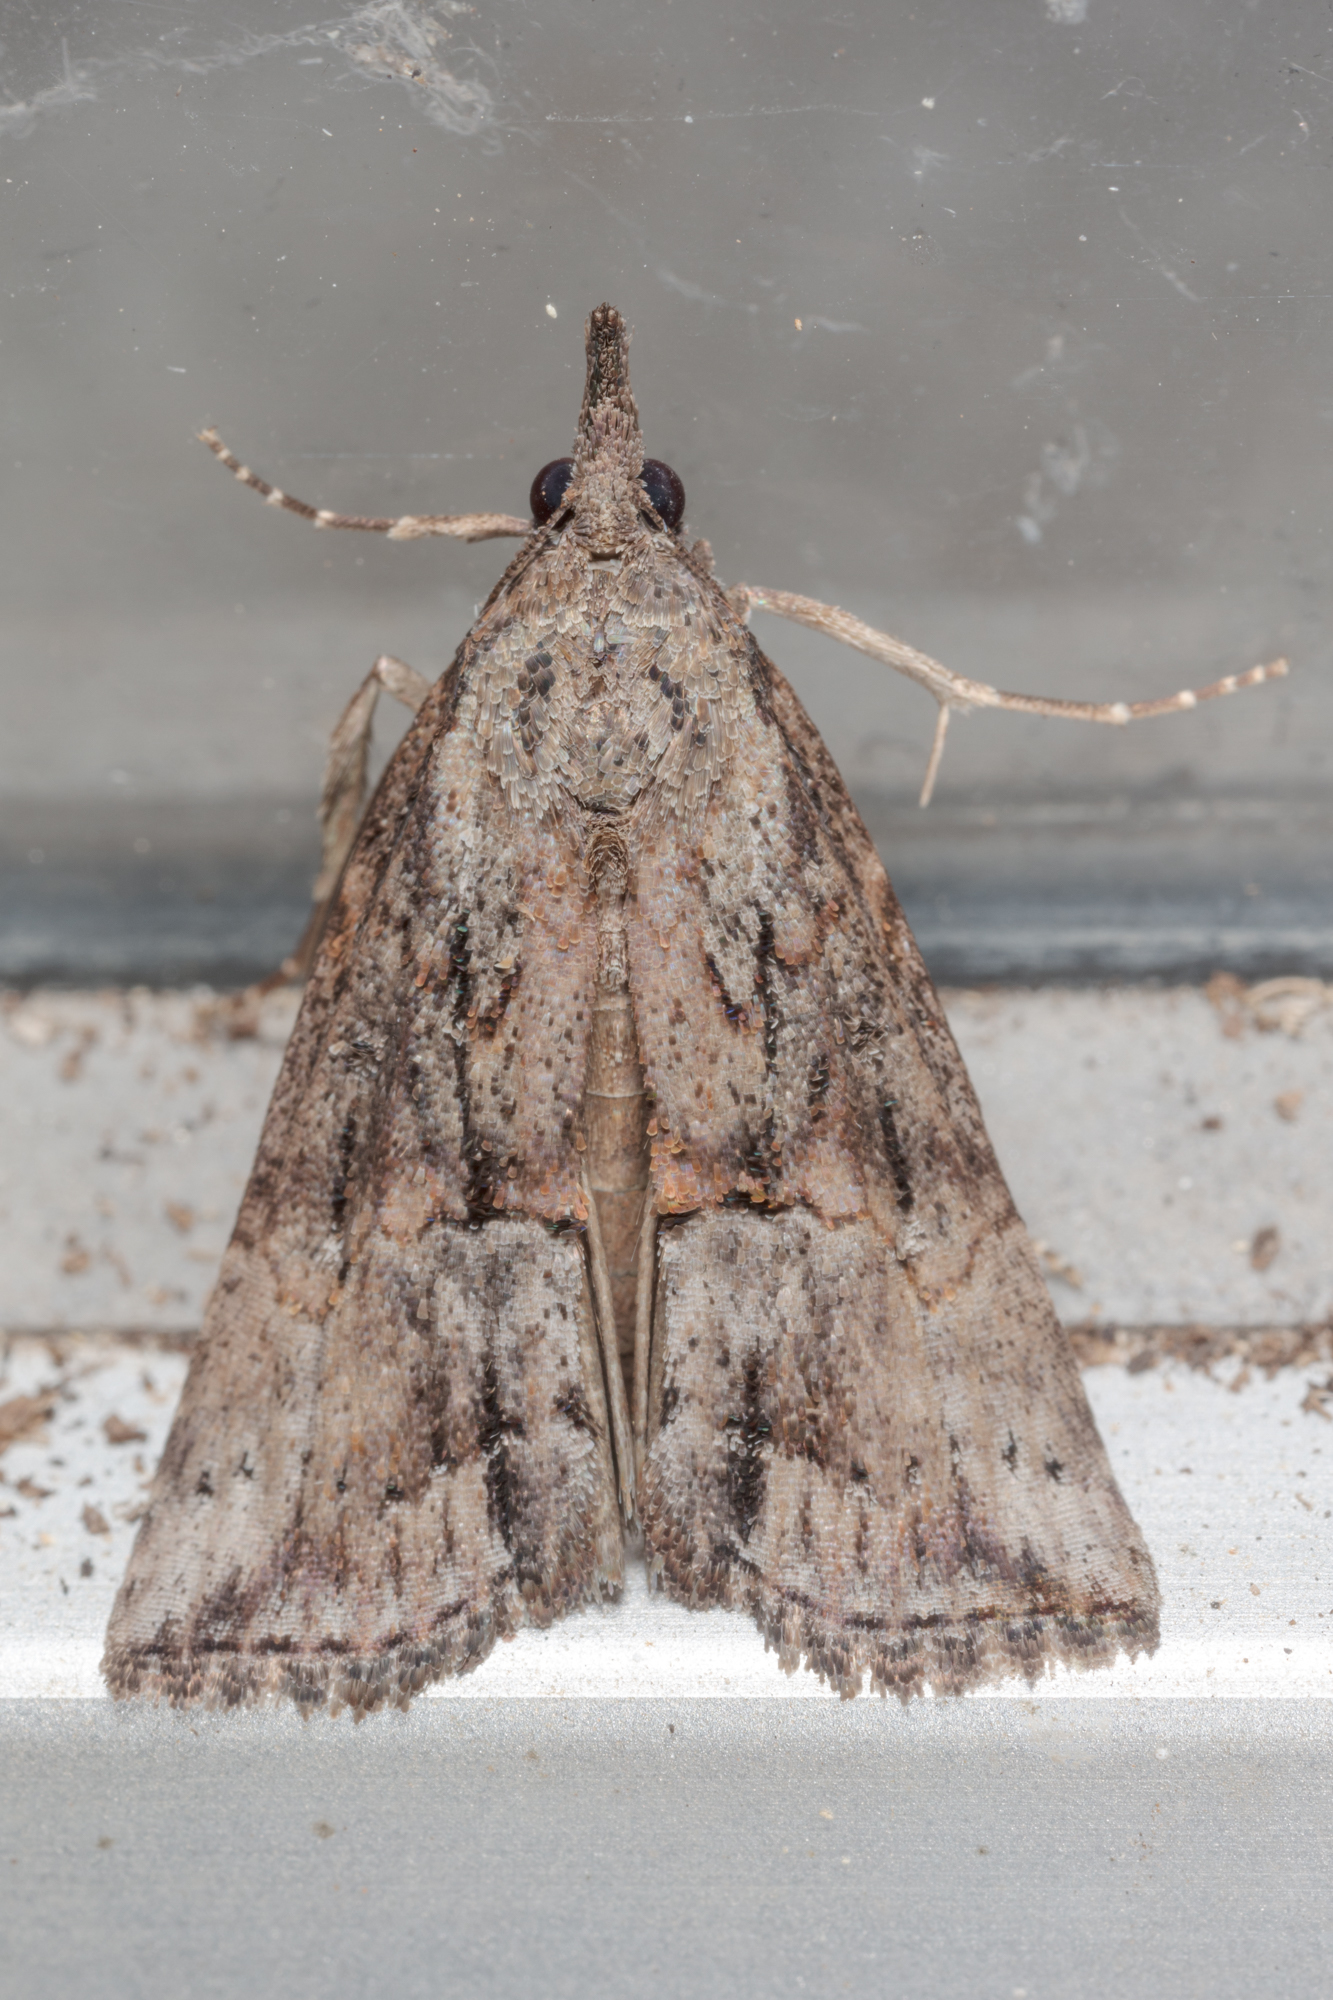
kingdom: Animalia
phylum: Arthropoda
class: Insecta
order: Lepidoptera
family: Erebidae
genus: Hypena
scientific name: Hypena scabra
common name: Green cloverworm
